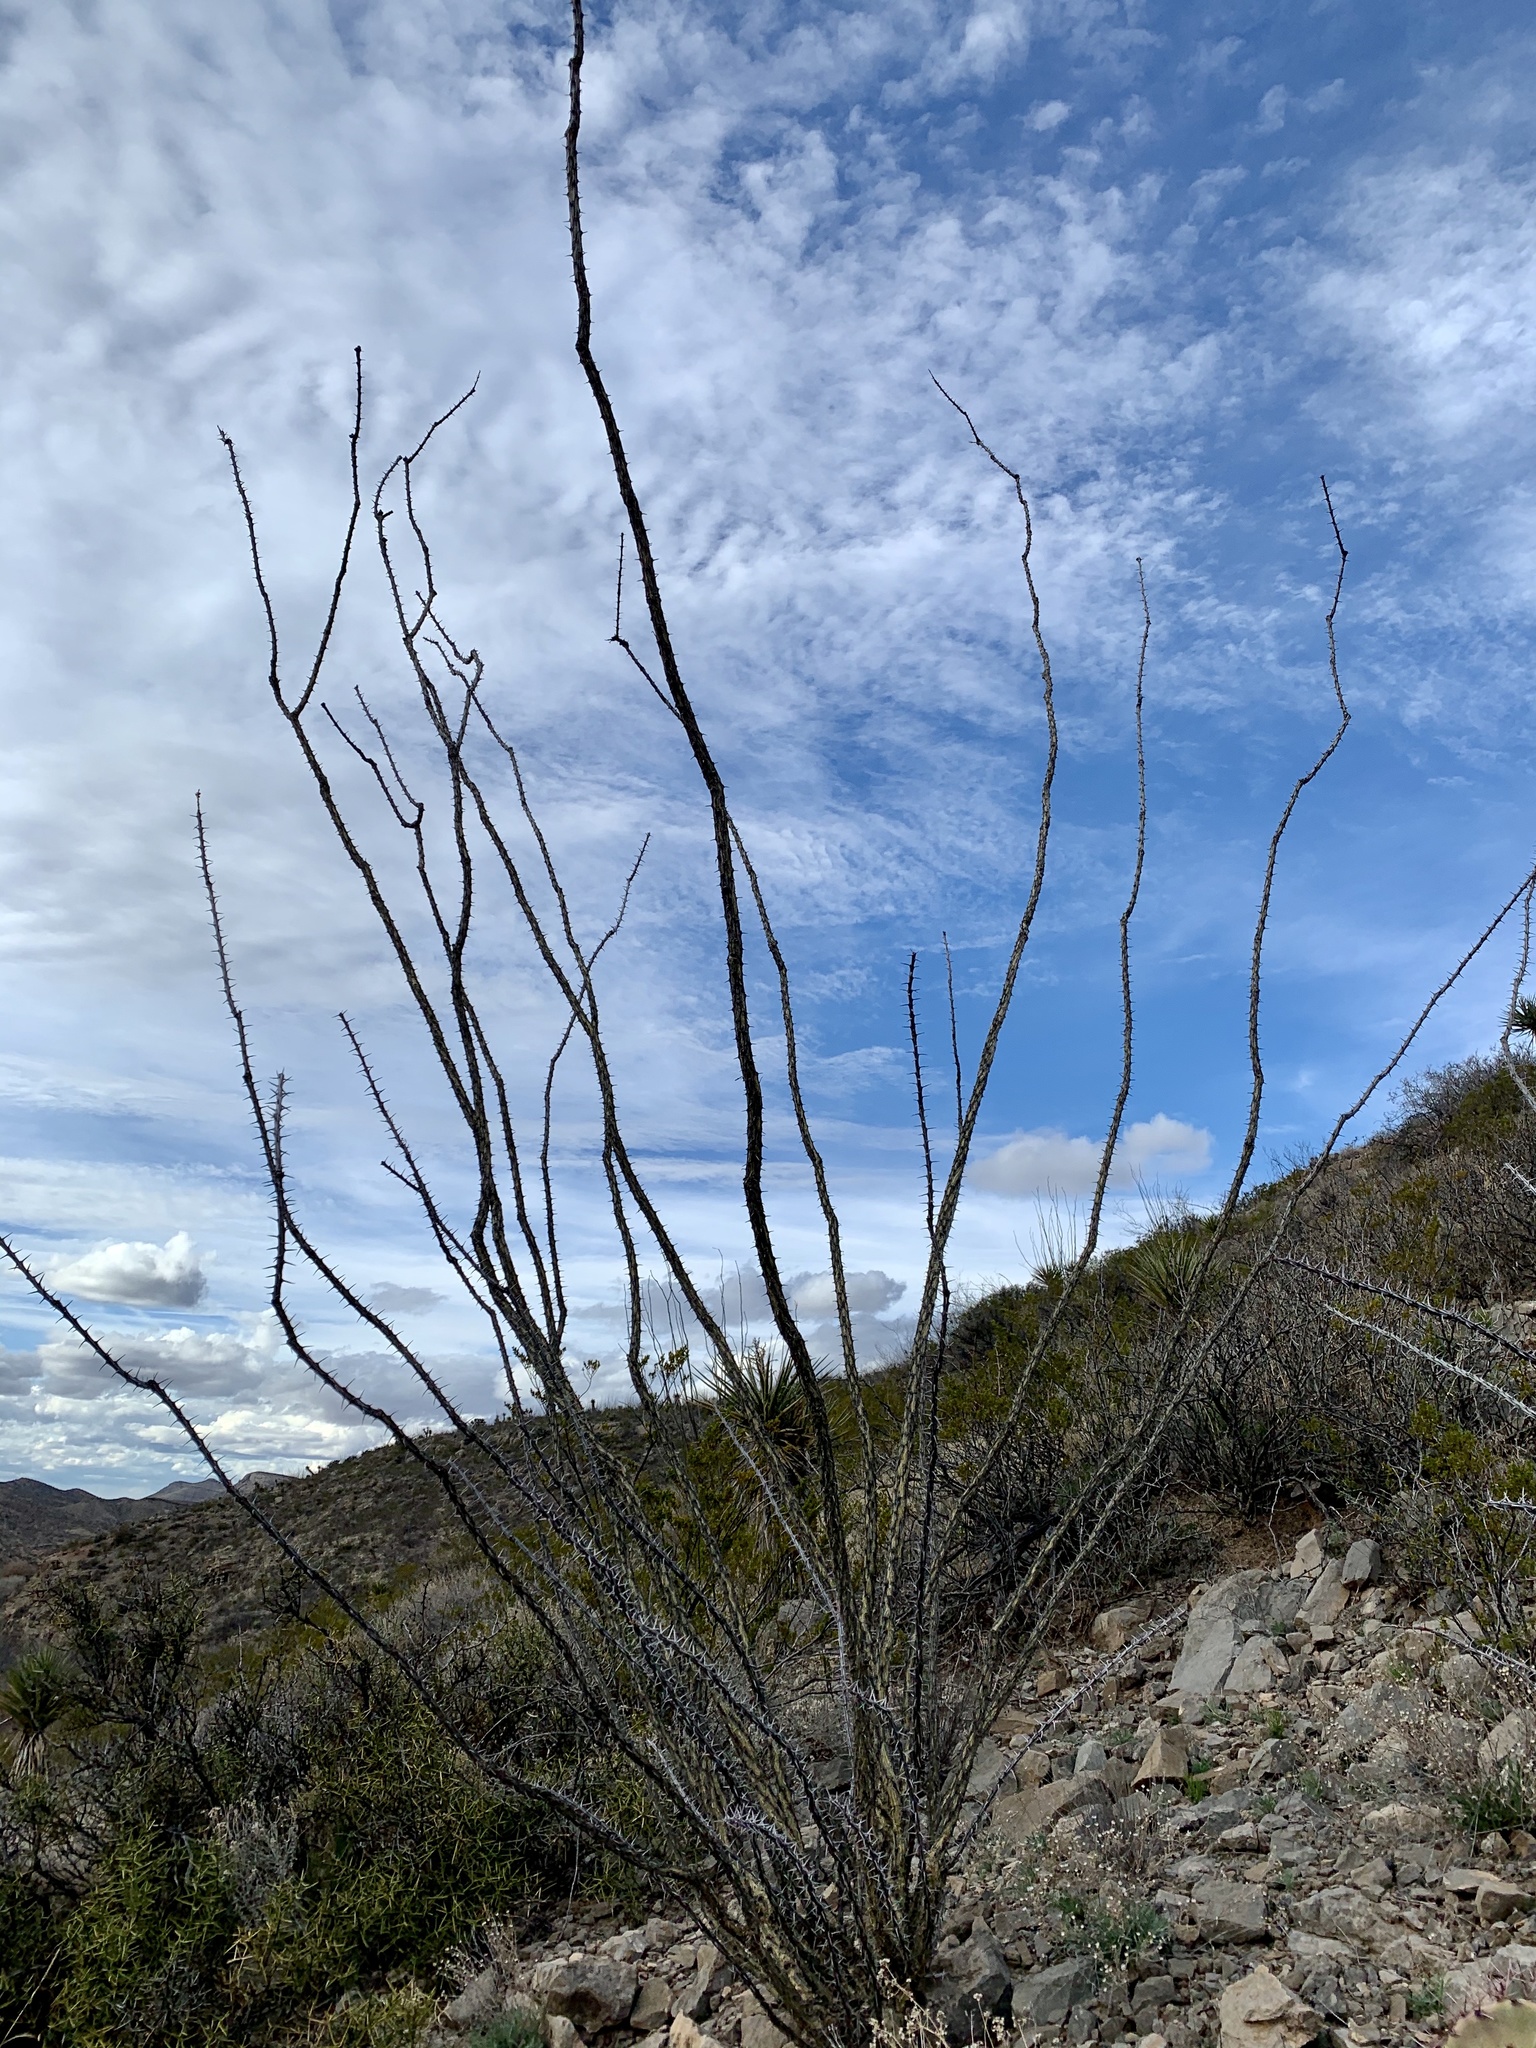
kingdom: Plantae
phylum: Tracheophyta
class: Magnoliopsida
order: Ericales
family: Fouquieriaceae
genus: Fouquieria
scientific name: Fouquieria splendens
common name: Vine-cactus
